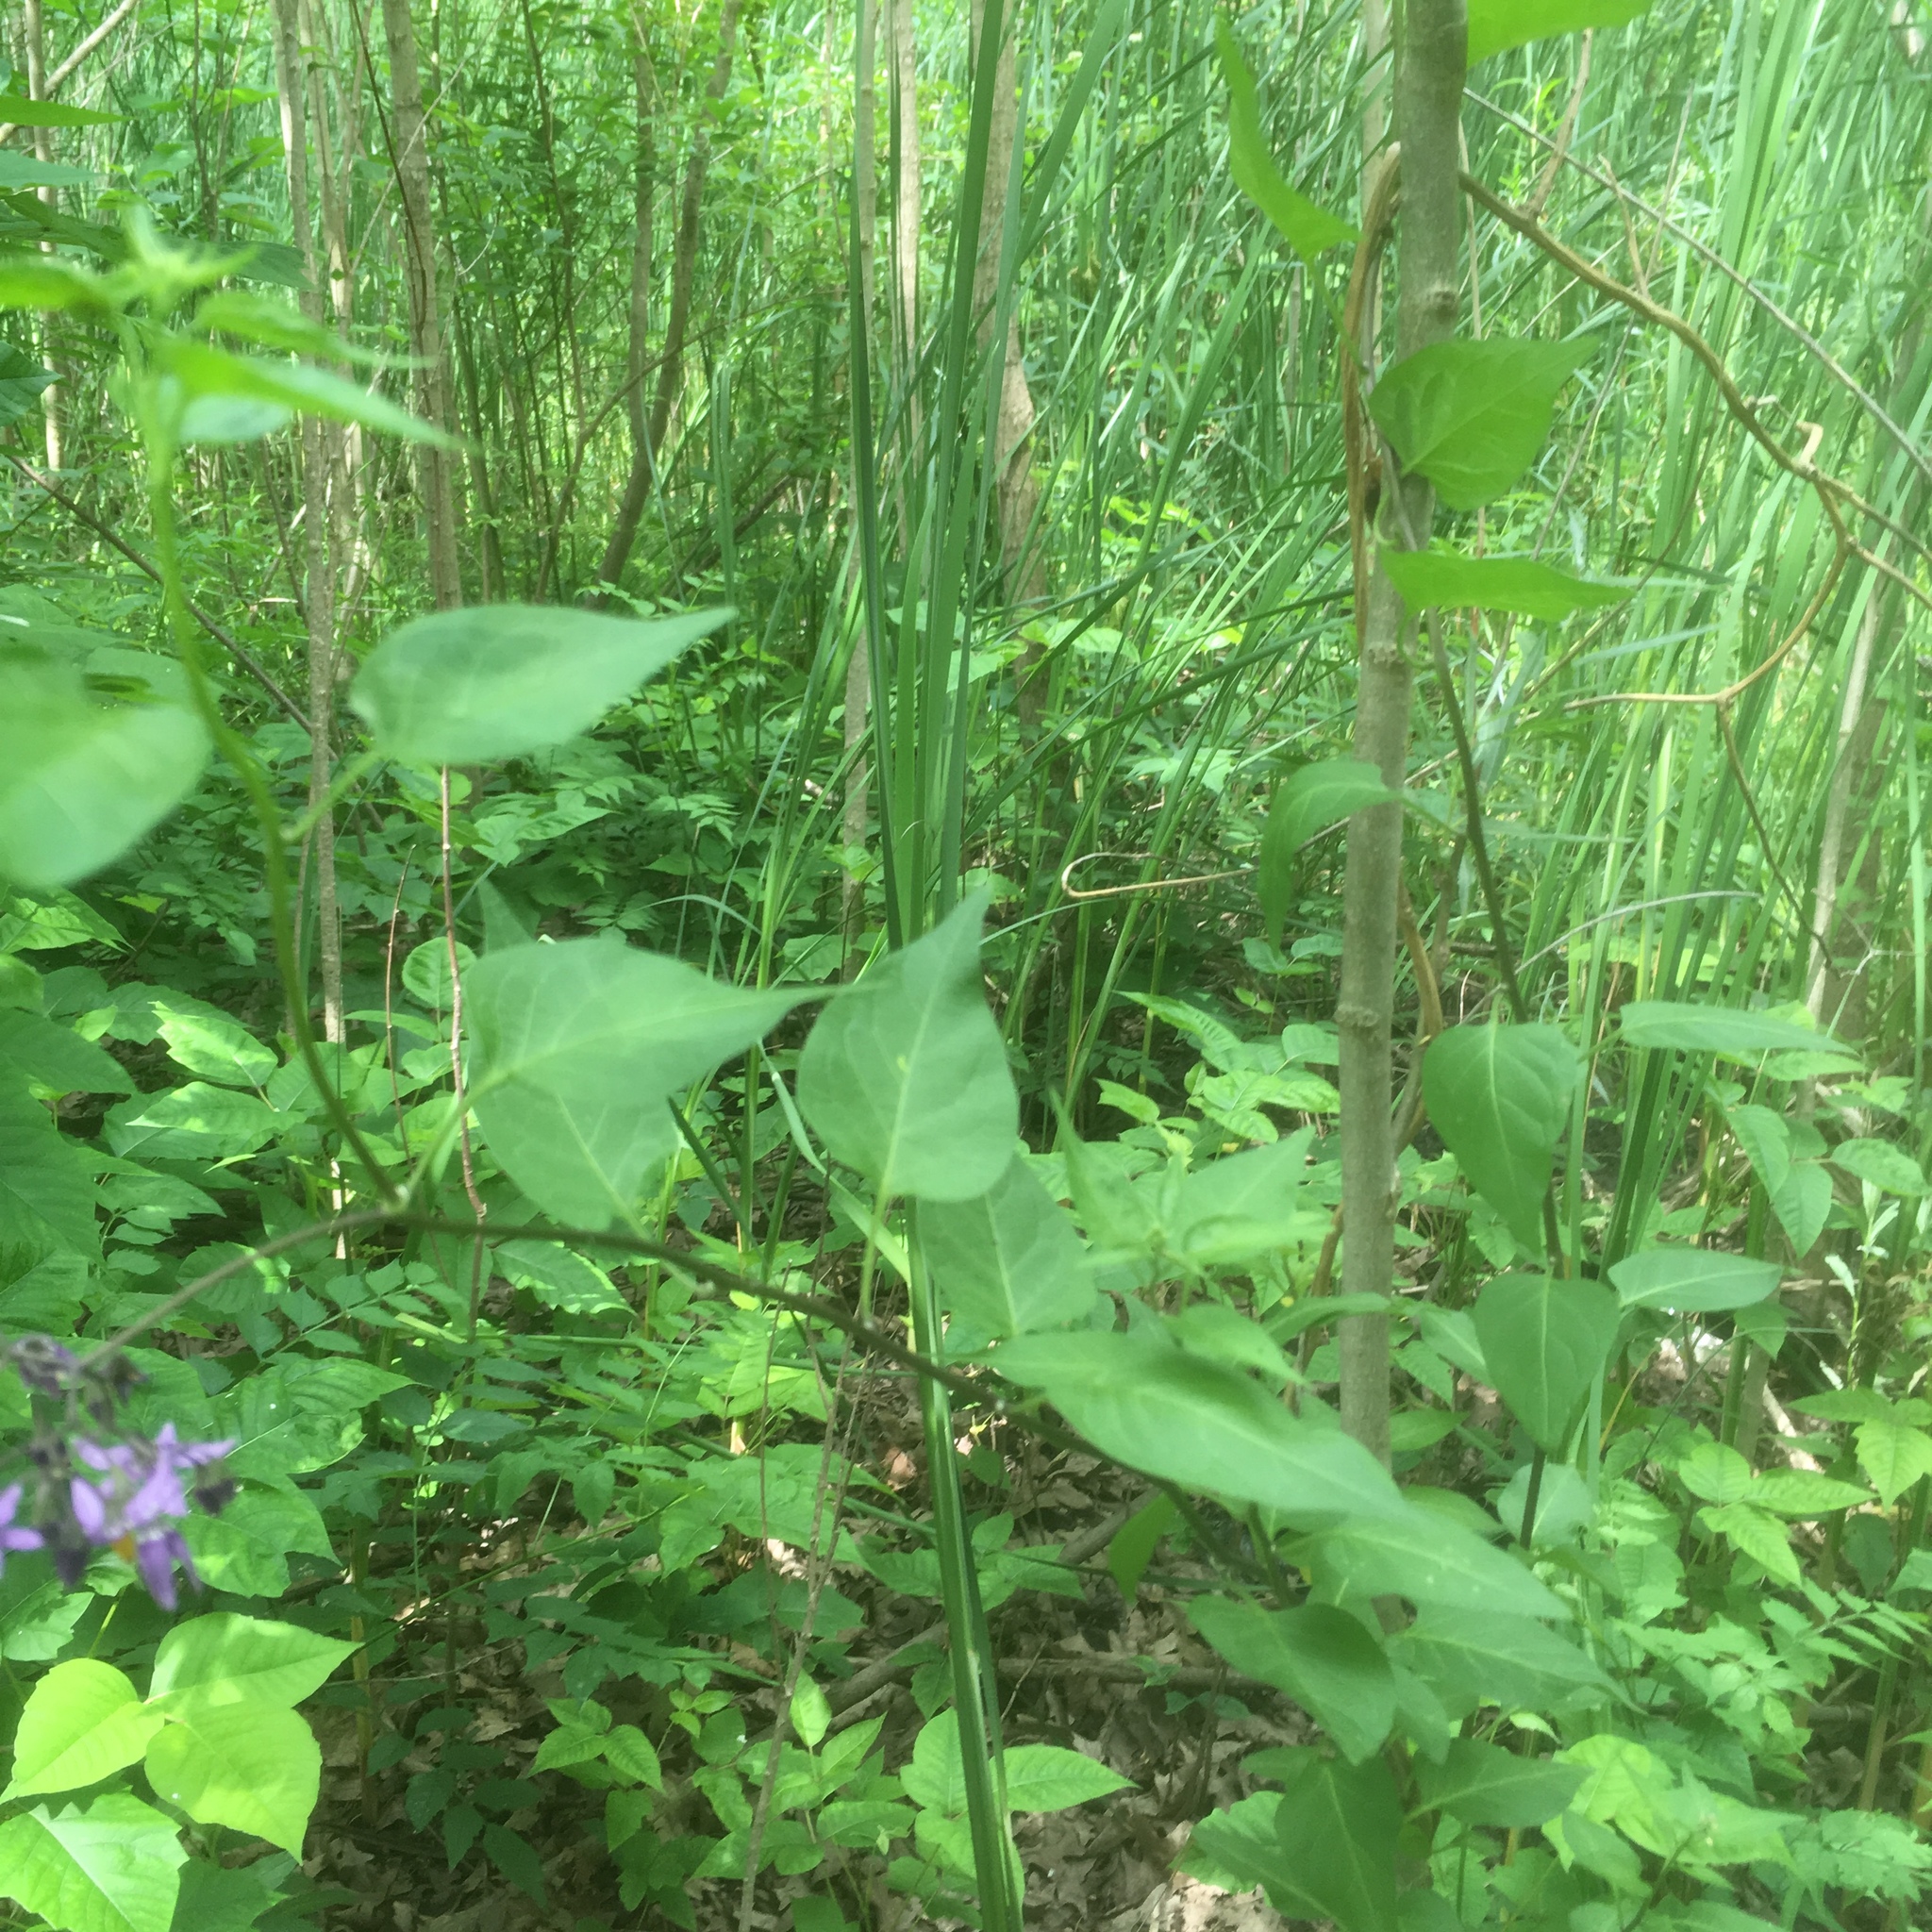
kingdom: Plantae
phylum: Tracheophyta
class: Magnoliopsida
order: Solanales
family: Solanaceae
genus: Solanum
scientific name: Solanum dulcamara
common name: Climbing nightshade
